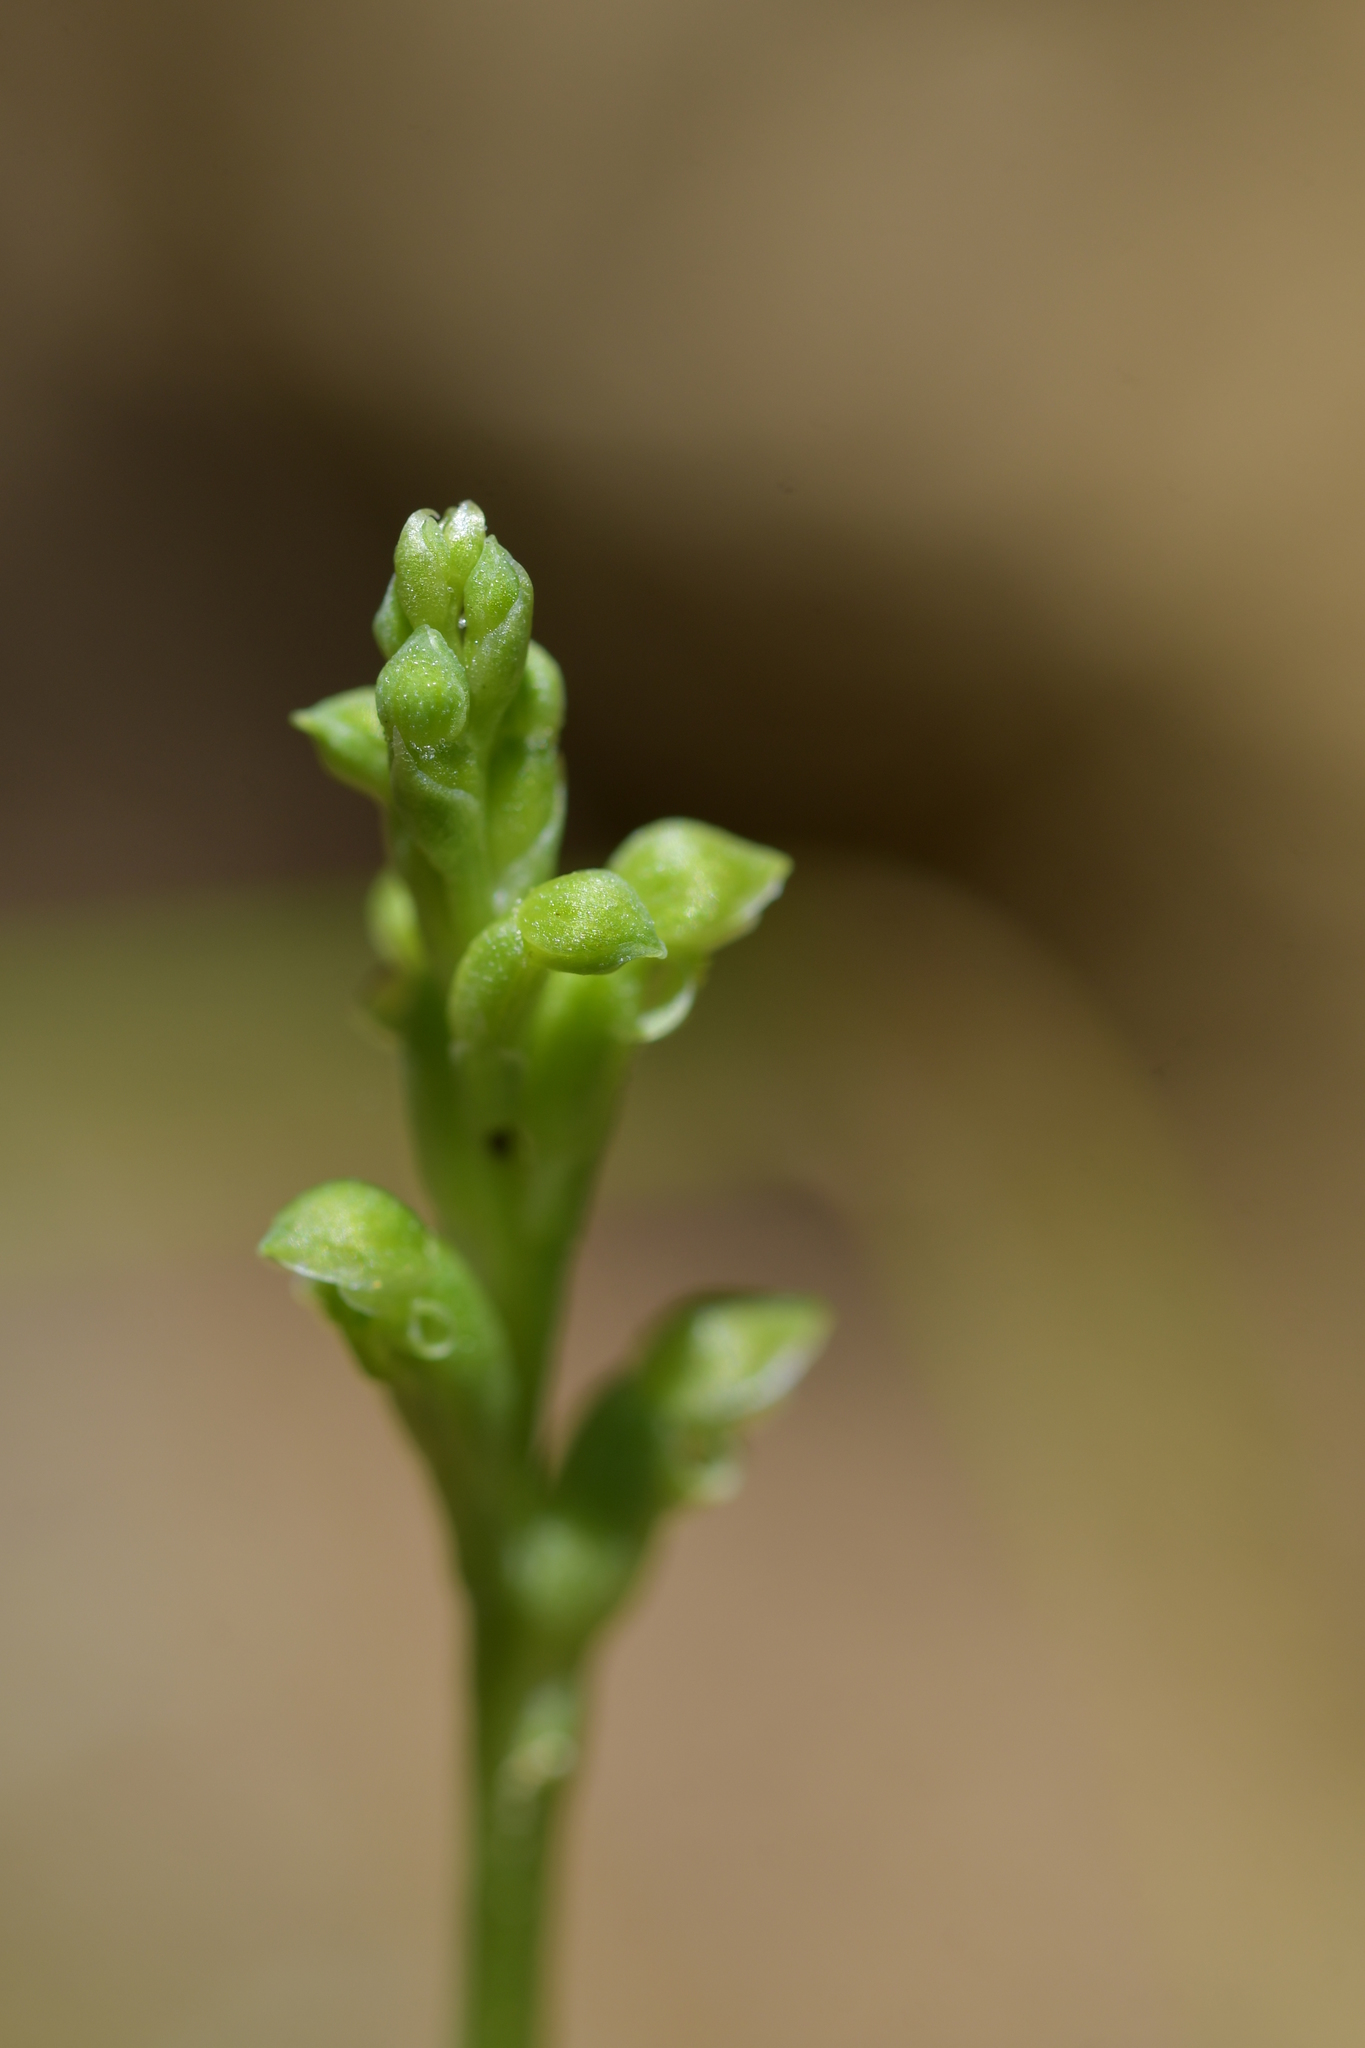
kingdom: Plantae
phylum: Tracheophyta
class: Liliopsida
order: Asparagales
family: Orchidaceae
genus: Microtis
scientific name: Microtis unifolia
